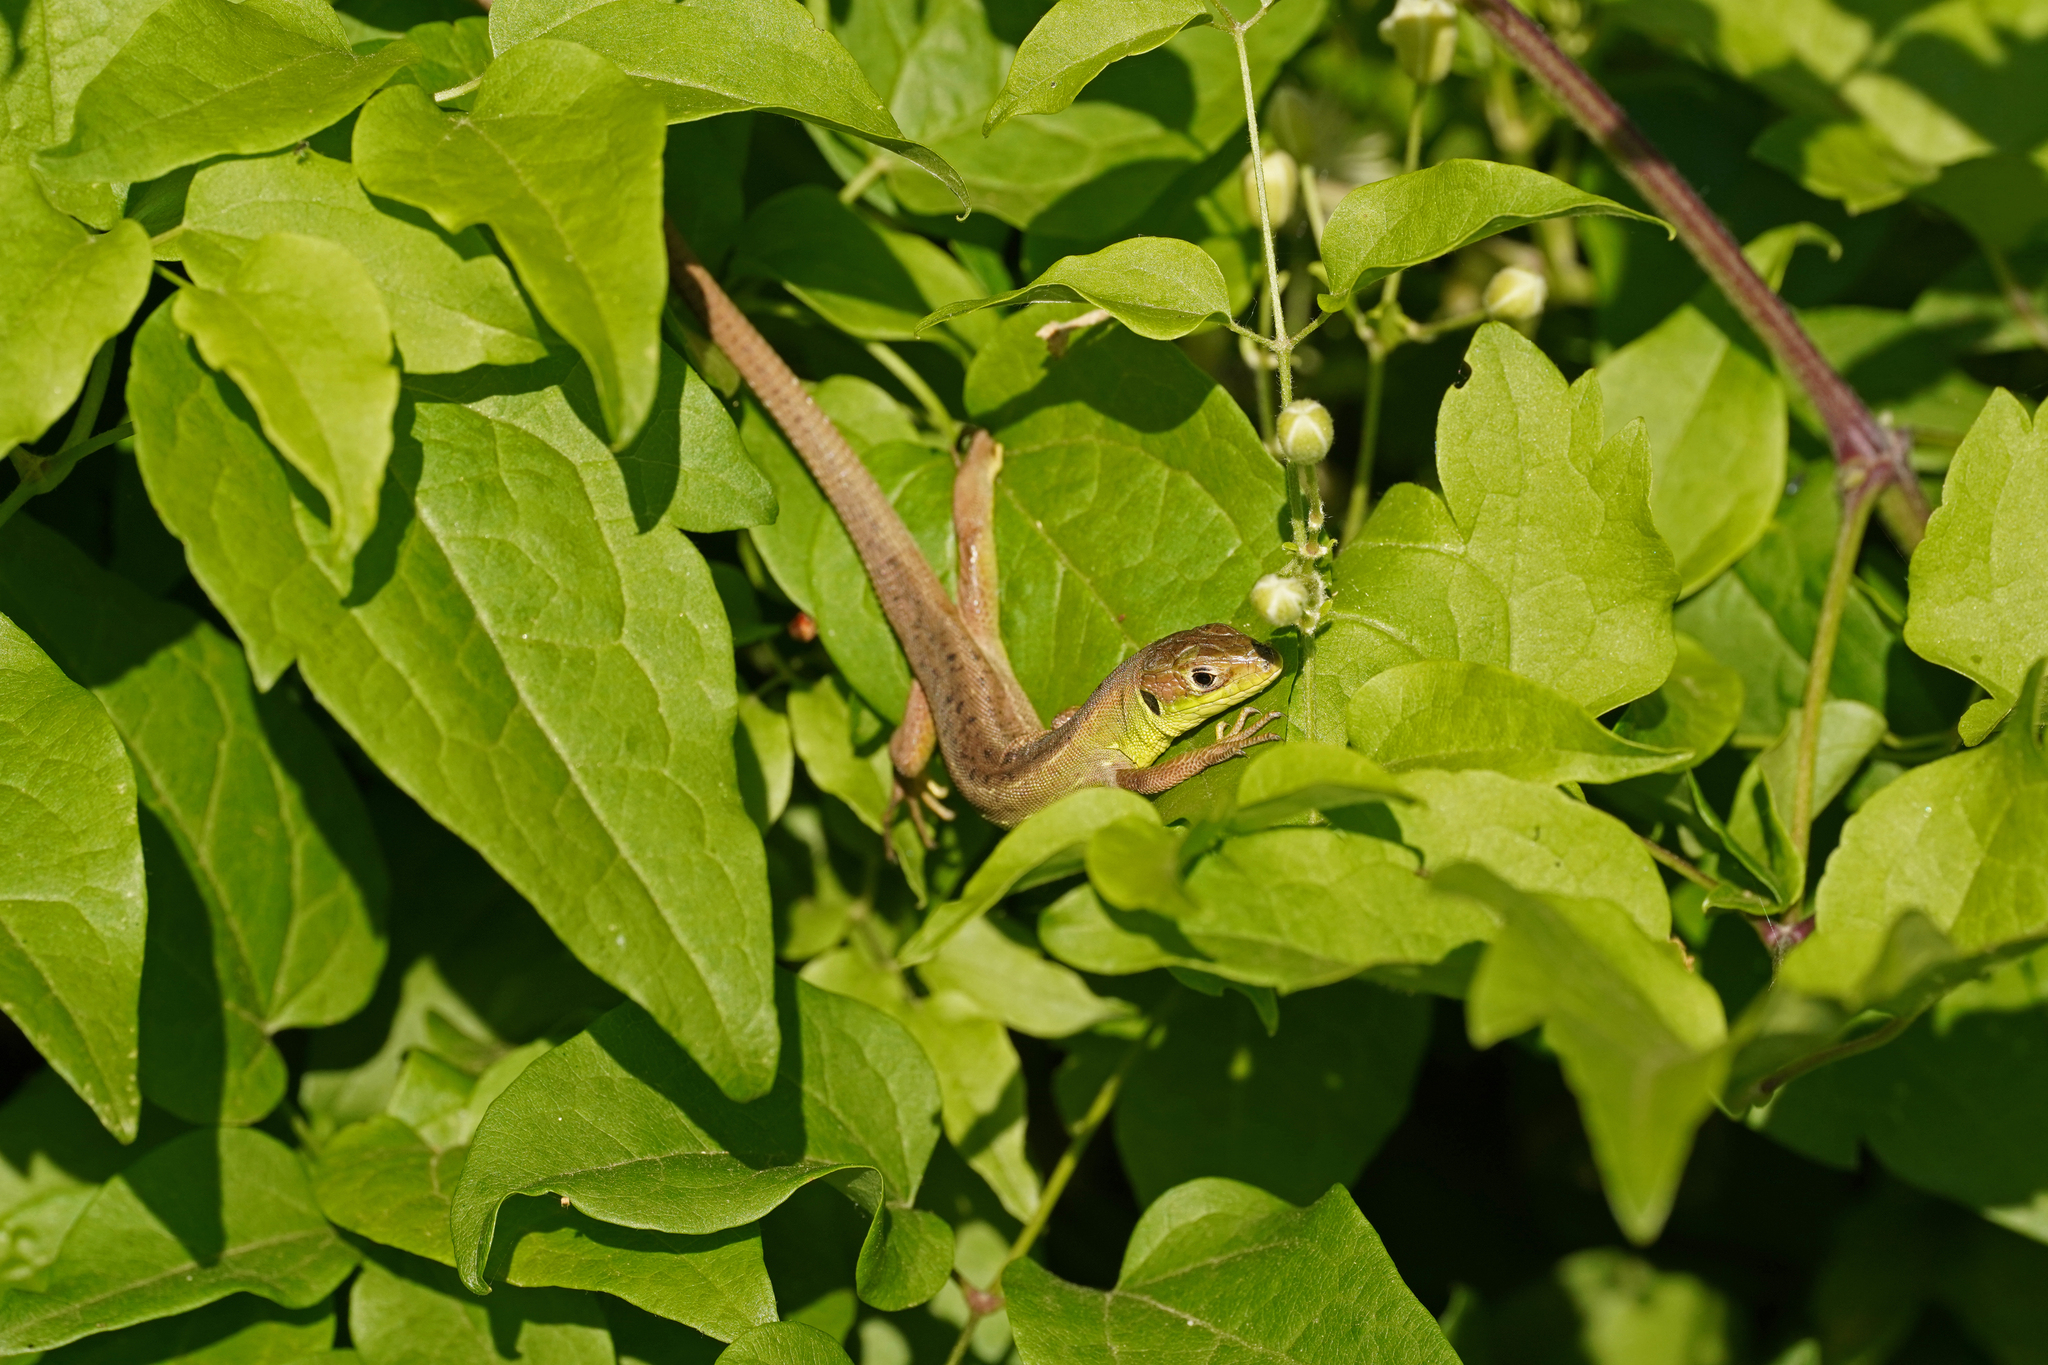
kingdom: Animalia
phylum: Chordata
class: Squamata
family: Lacertidae
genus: Lacerta
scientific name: Lacerta bilineata
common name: Western green lizard
